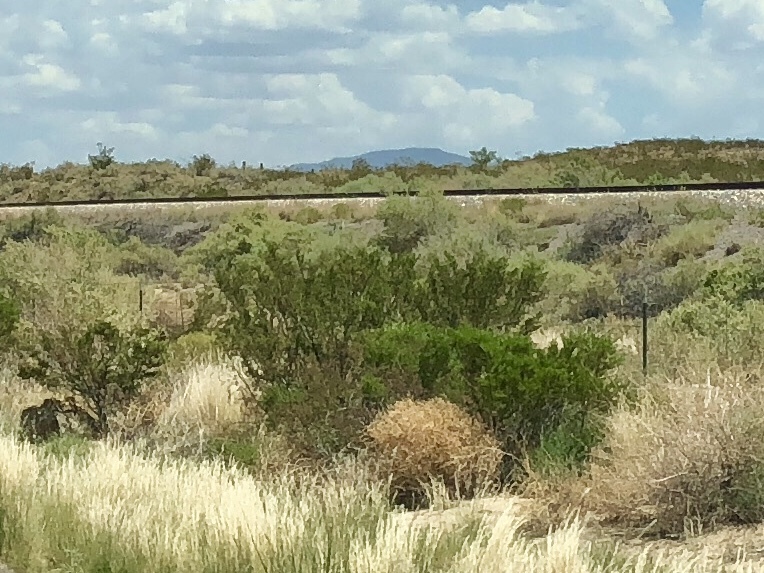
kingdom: Plantae
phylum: Tracheophyta
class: Magnoliopsida
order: Zygophyllales
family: Zygophyllaceae
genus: Larrea
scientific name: Larrea tridentata
